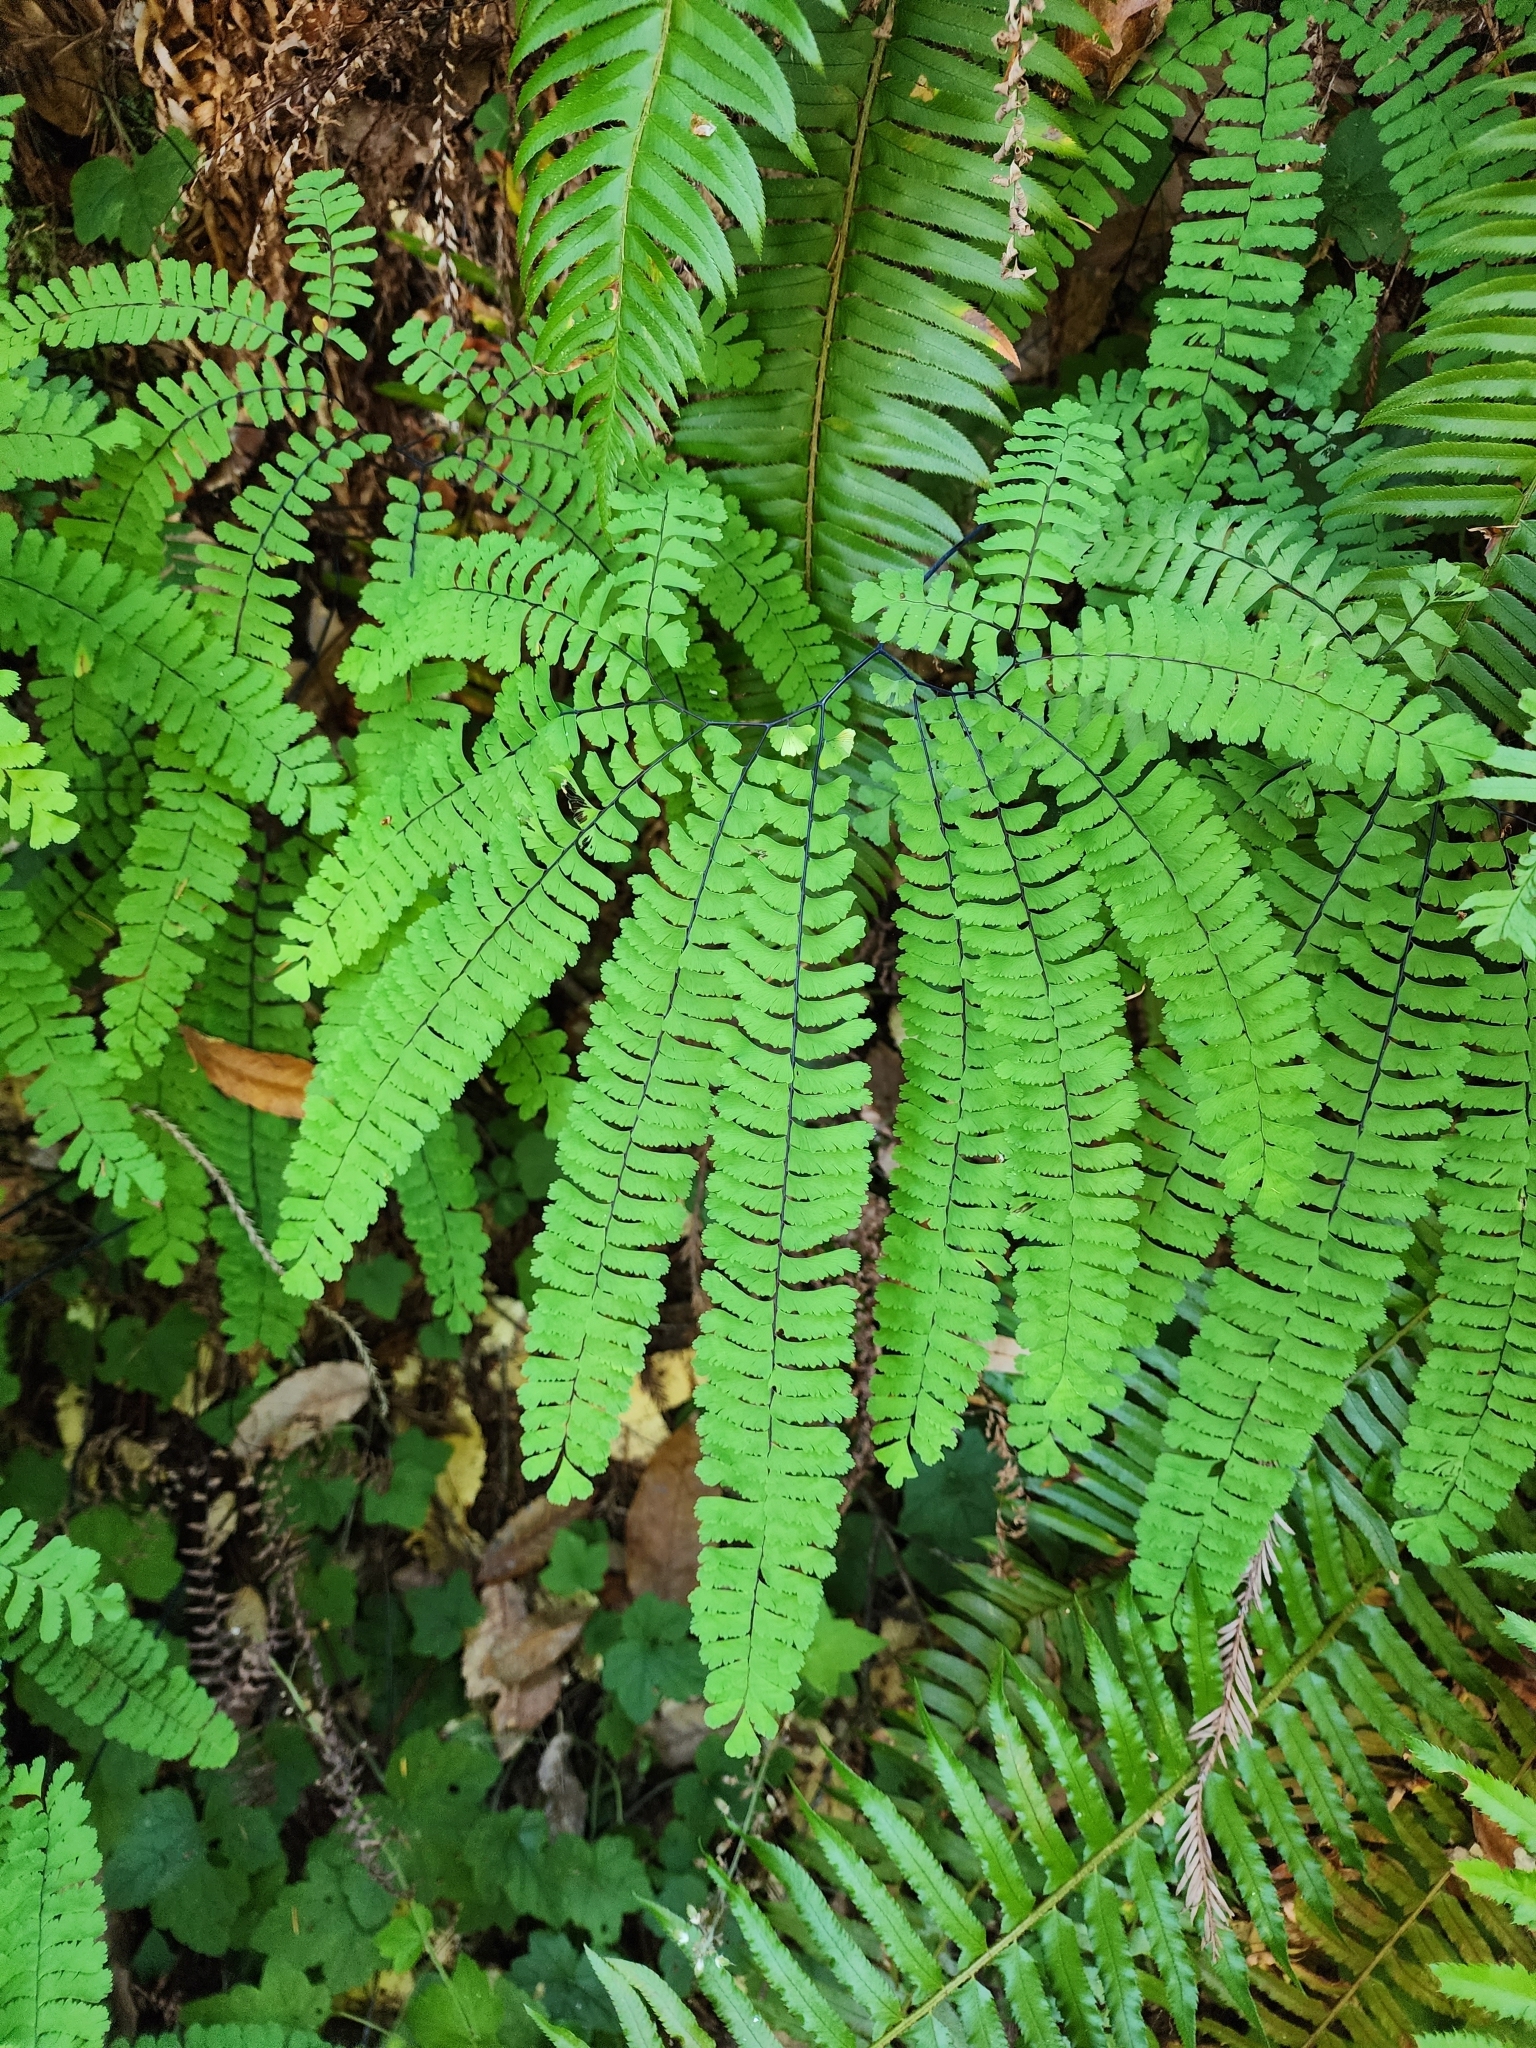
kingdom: Plantae
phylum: Tracheophyta
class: Polypodiopsida
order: Polypodiales
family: Pteridaceae
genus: Adiantum
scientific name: Adiantum aleuticum
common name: Aleutian maidenhair fern
